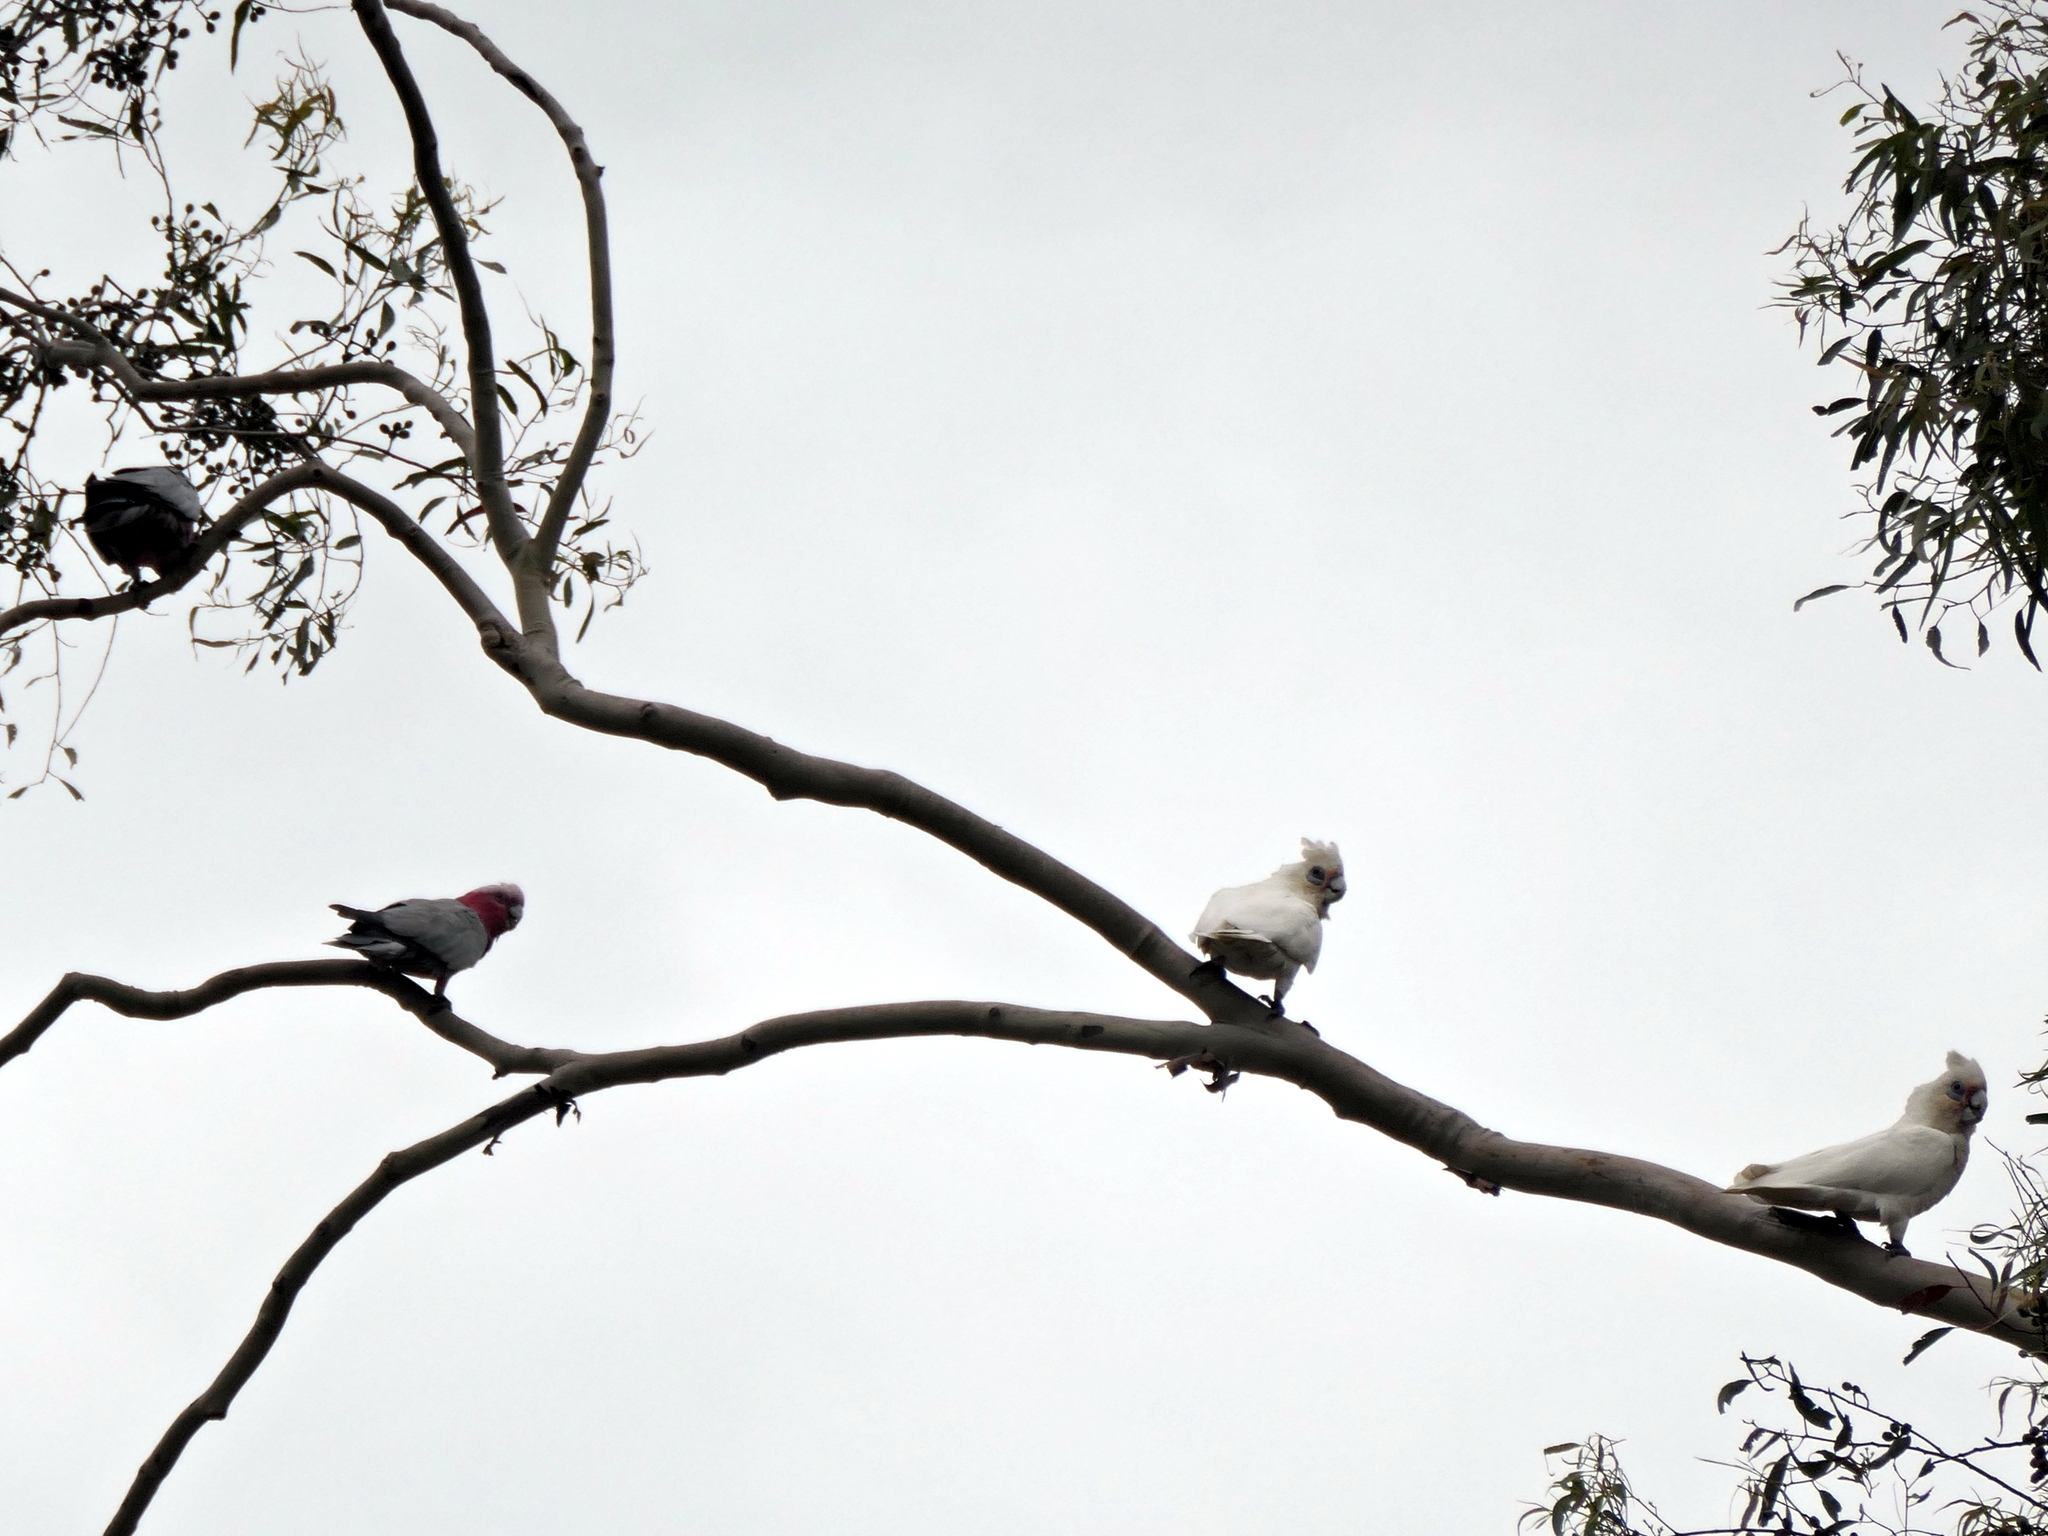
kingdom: Animalia
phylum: Chordata
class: Aves
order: Psittaciformes
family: Psittacidae
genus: Eolophus
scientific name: Eolophus roseicapilla
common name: Galah
